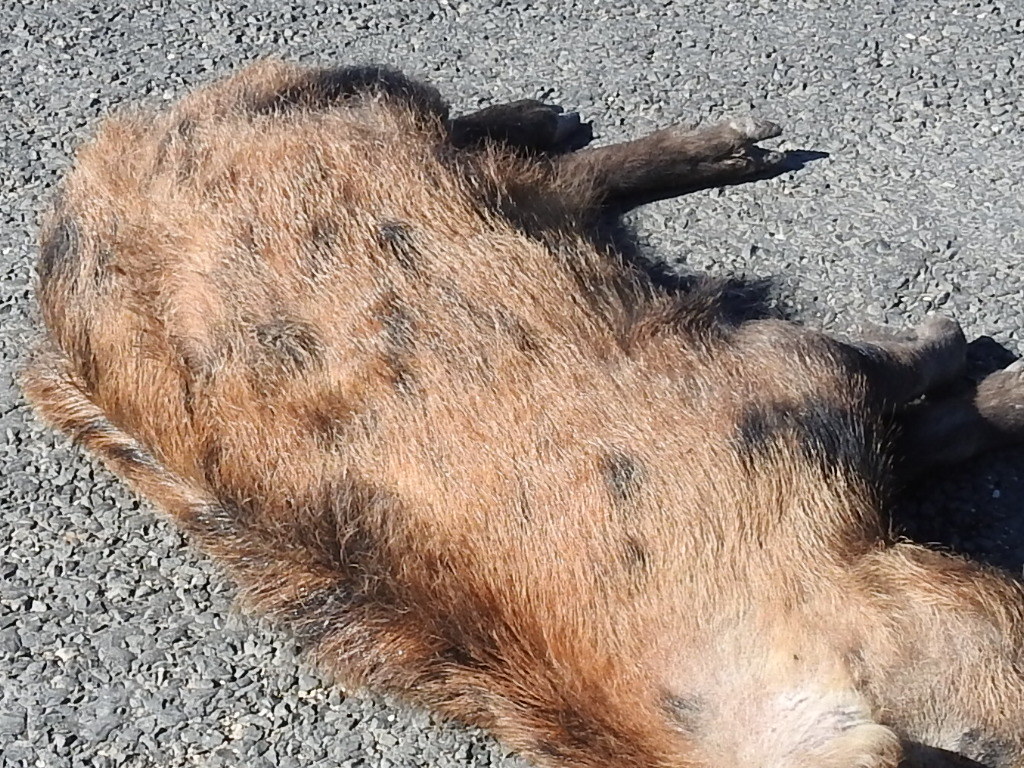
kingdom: Animalia
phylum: Chordata
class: Mammalia
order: Artiodactyla
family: Suidae
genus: Sus
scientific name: Sus scrofa
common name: Wild boar
